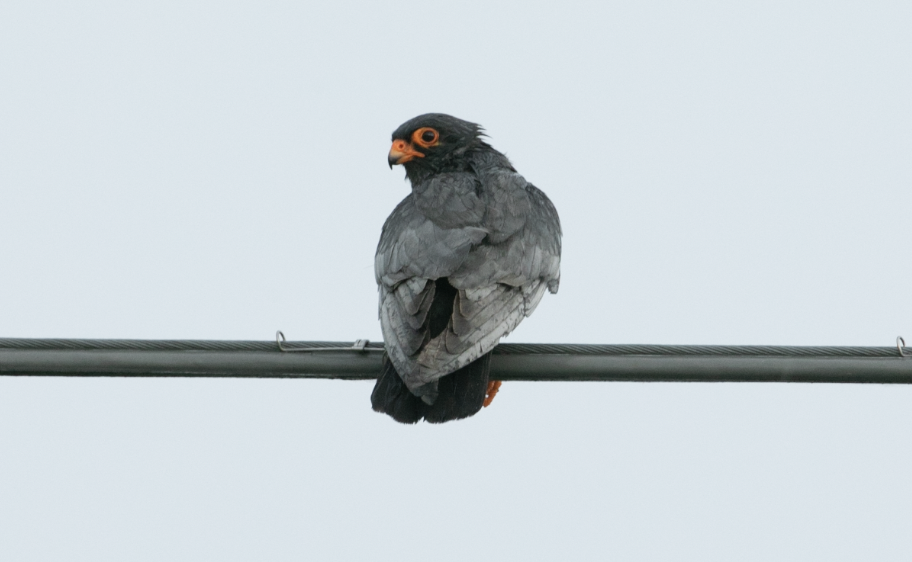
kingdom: Animalia
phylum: Chordata
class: Aves
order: Falconiformes
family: Falconidae
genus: Falco
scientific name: Falco vespertinus
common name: Red-footed falcon
